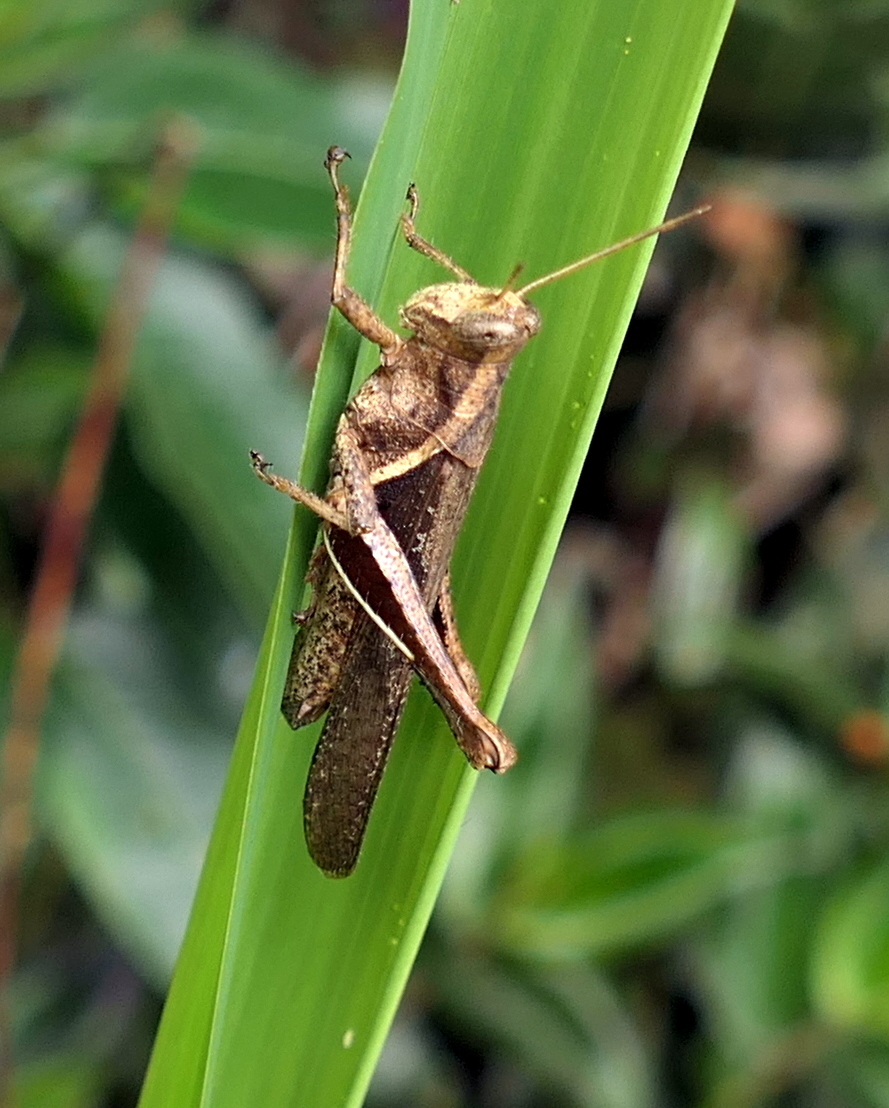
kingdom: Animalia
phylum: Arthropoda
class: Insecta
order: Orthoptera
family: Acrididae
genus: Abracris
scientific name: Abracris flavolineata
